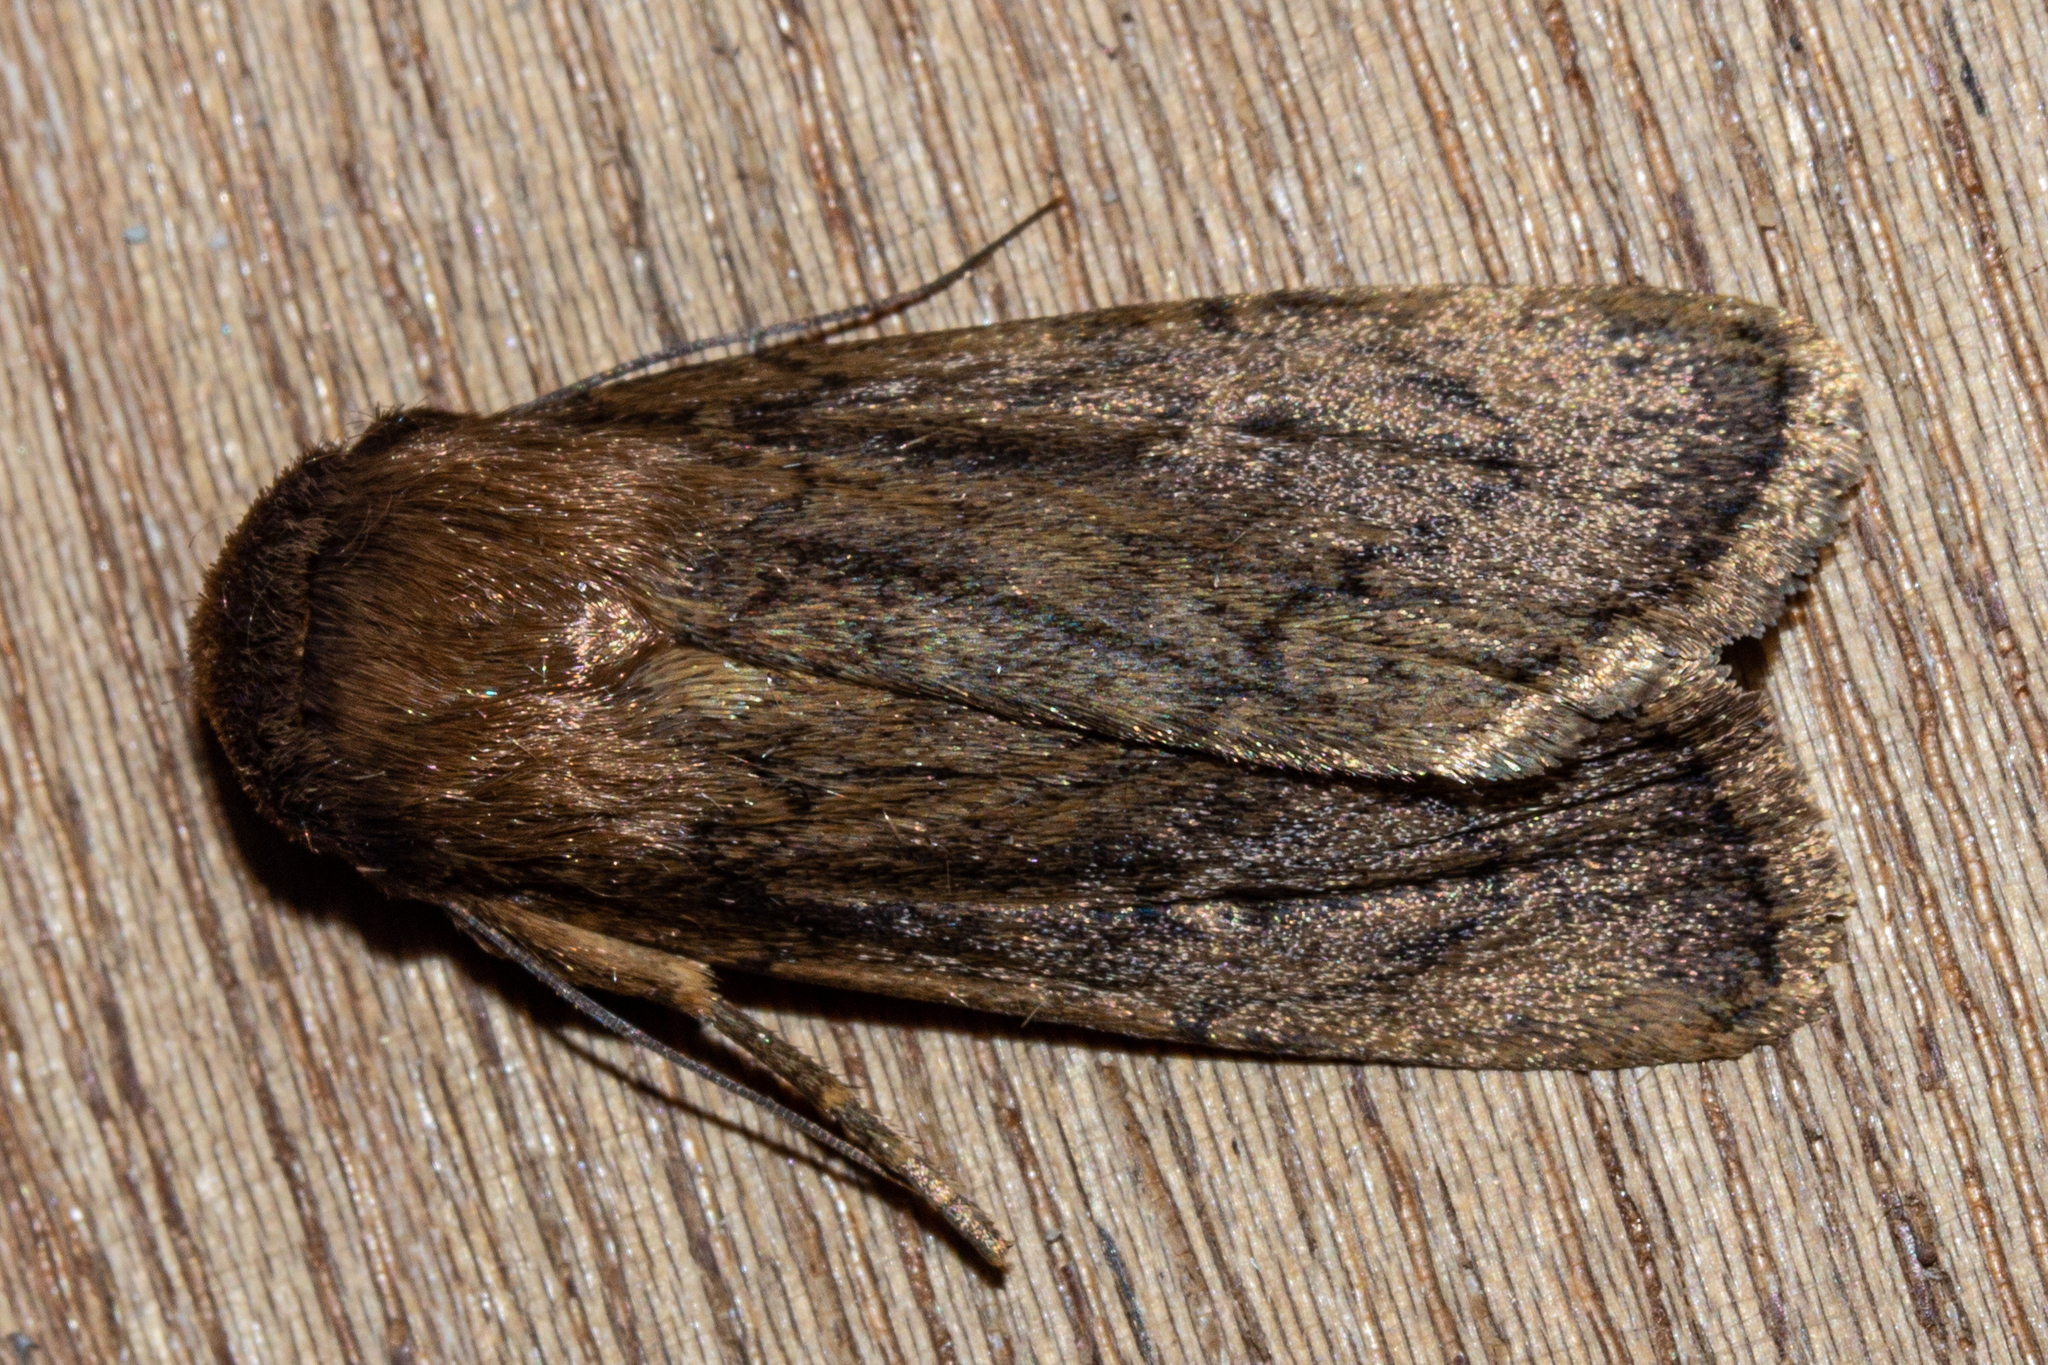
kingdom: Animalia
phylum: Arthropoda
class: Insecta
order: Lepidoptera
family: Noctuidae
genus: Bityla
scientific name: Bityla defigurata
